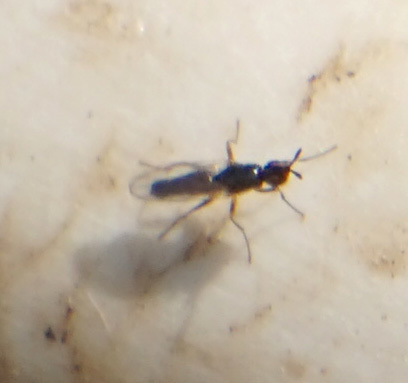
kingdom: Animalia
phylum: Arthropoda
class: Insecta
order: Diptera
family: Piophilidae
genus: Prochyliza
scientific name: Prochyliza xanthostoma
